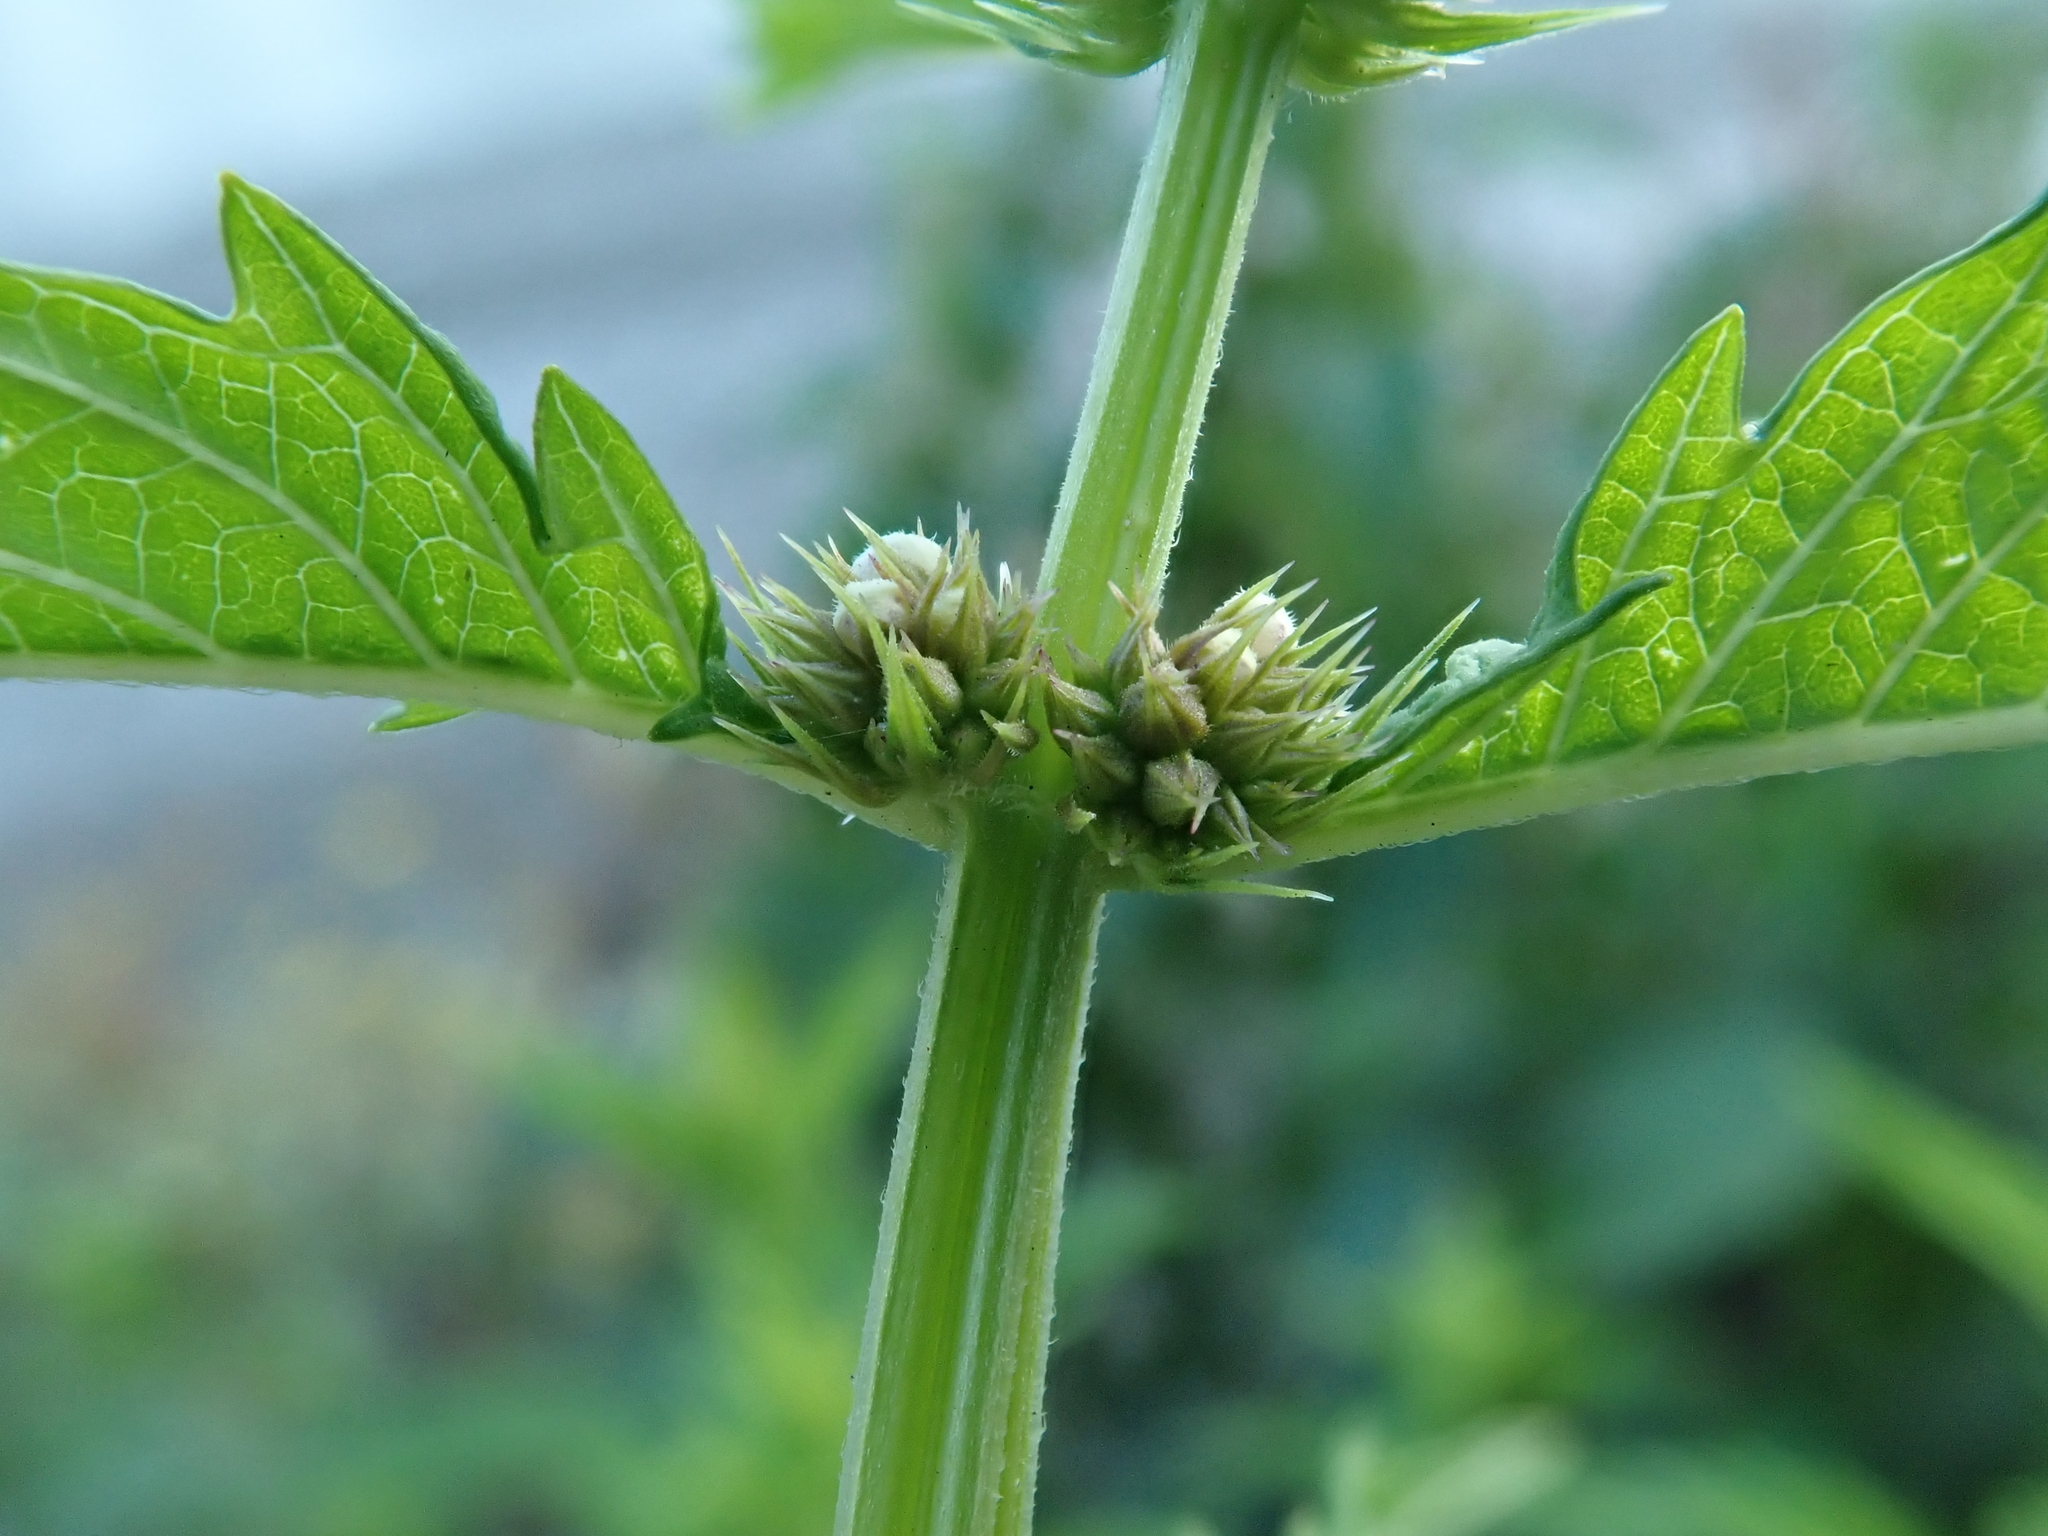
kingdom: Plantae
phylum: Tracheophyta
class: Magnoliopsida
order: Lamiales
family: Lamiaceae
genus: Lycopus
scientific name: Lycopus europaeus
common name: European bugleweed
